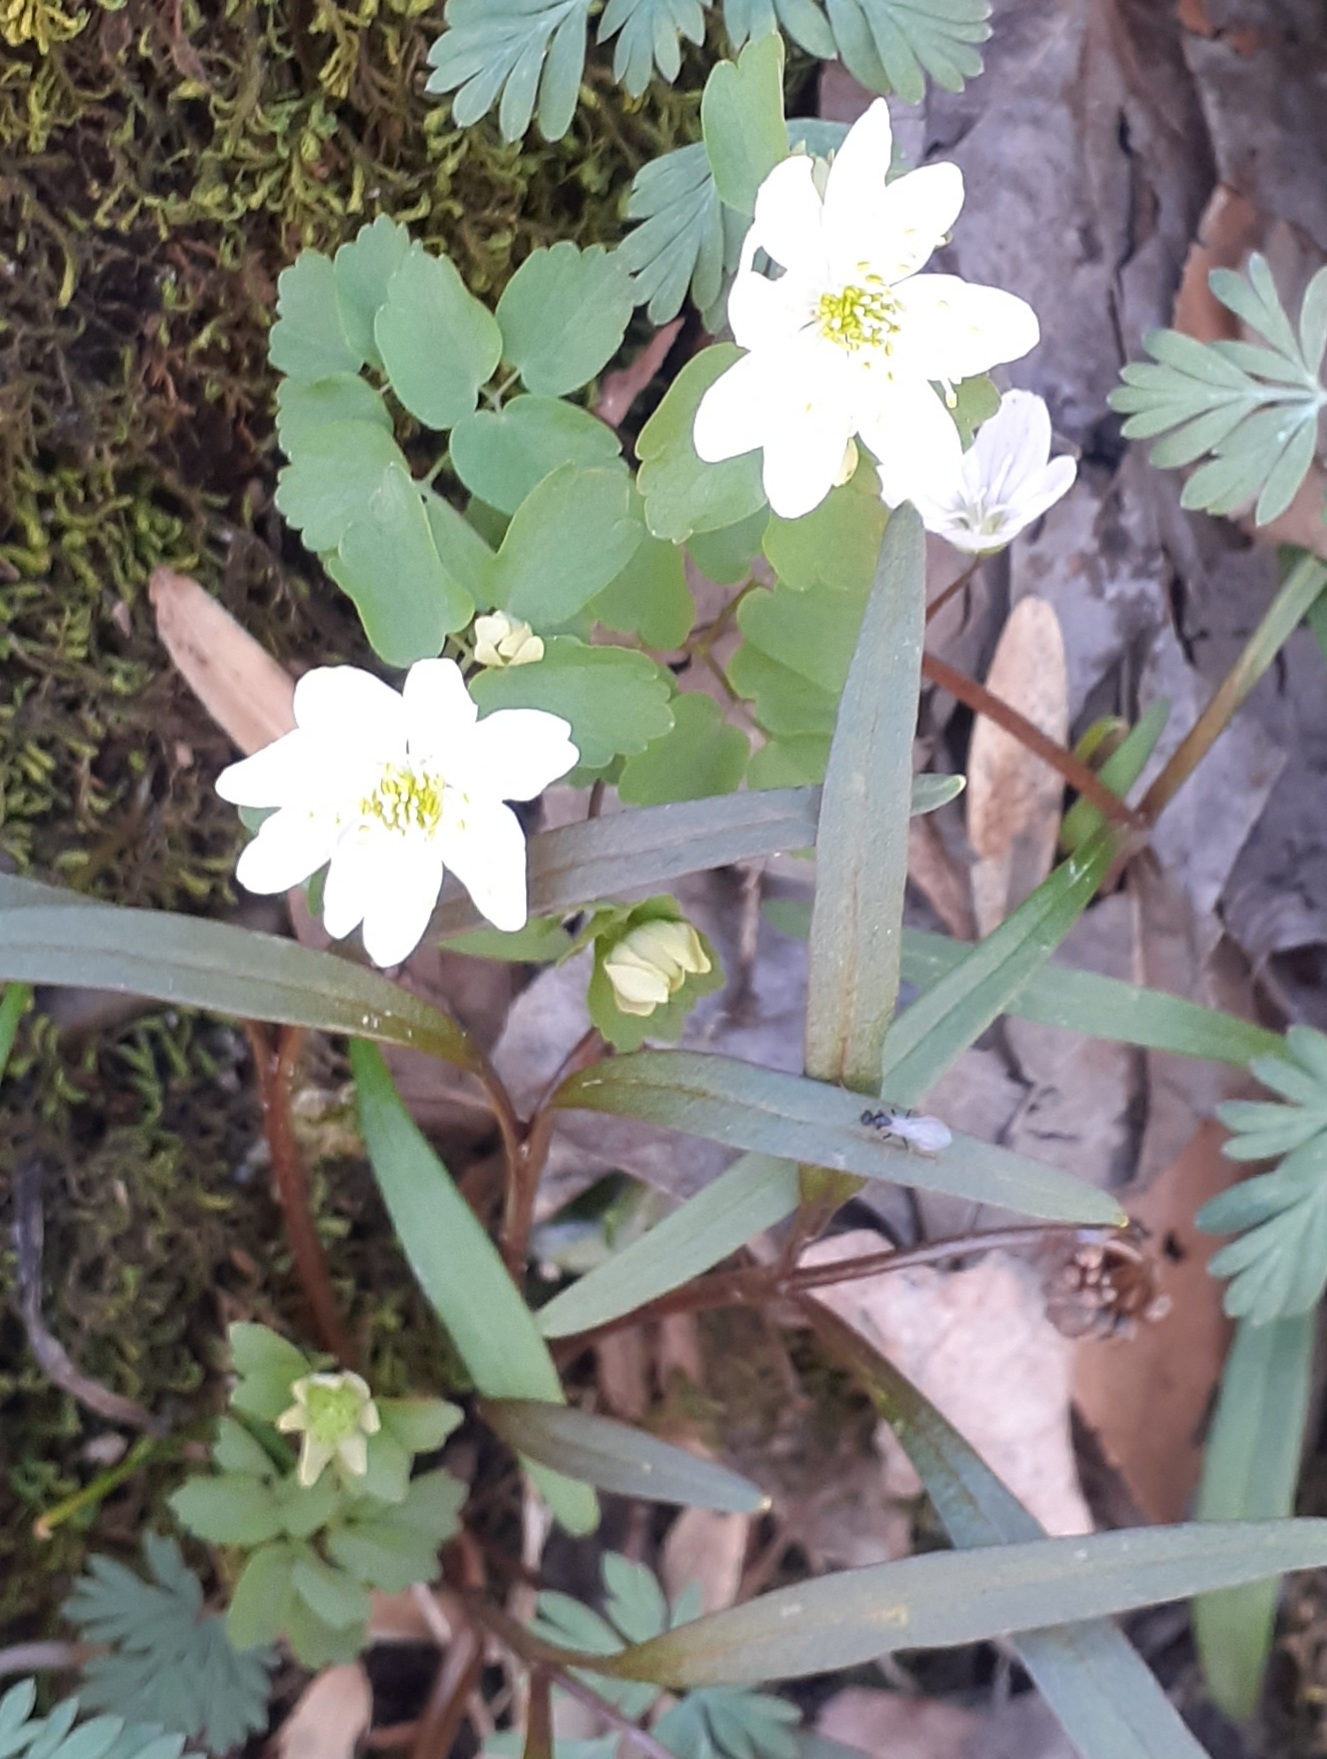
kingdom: Plantae
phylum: Tracheophyta
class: Magnoliopsida
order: Ranunculales
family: Ranunculaceae
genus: Thalictrum
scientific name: Thalictrum thalictroides
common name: Rue-anemone
